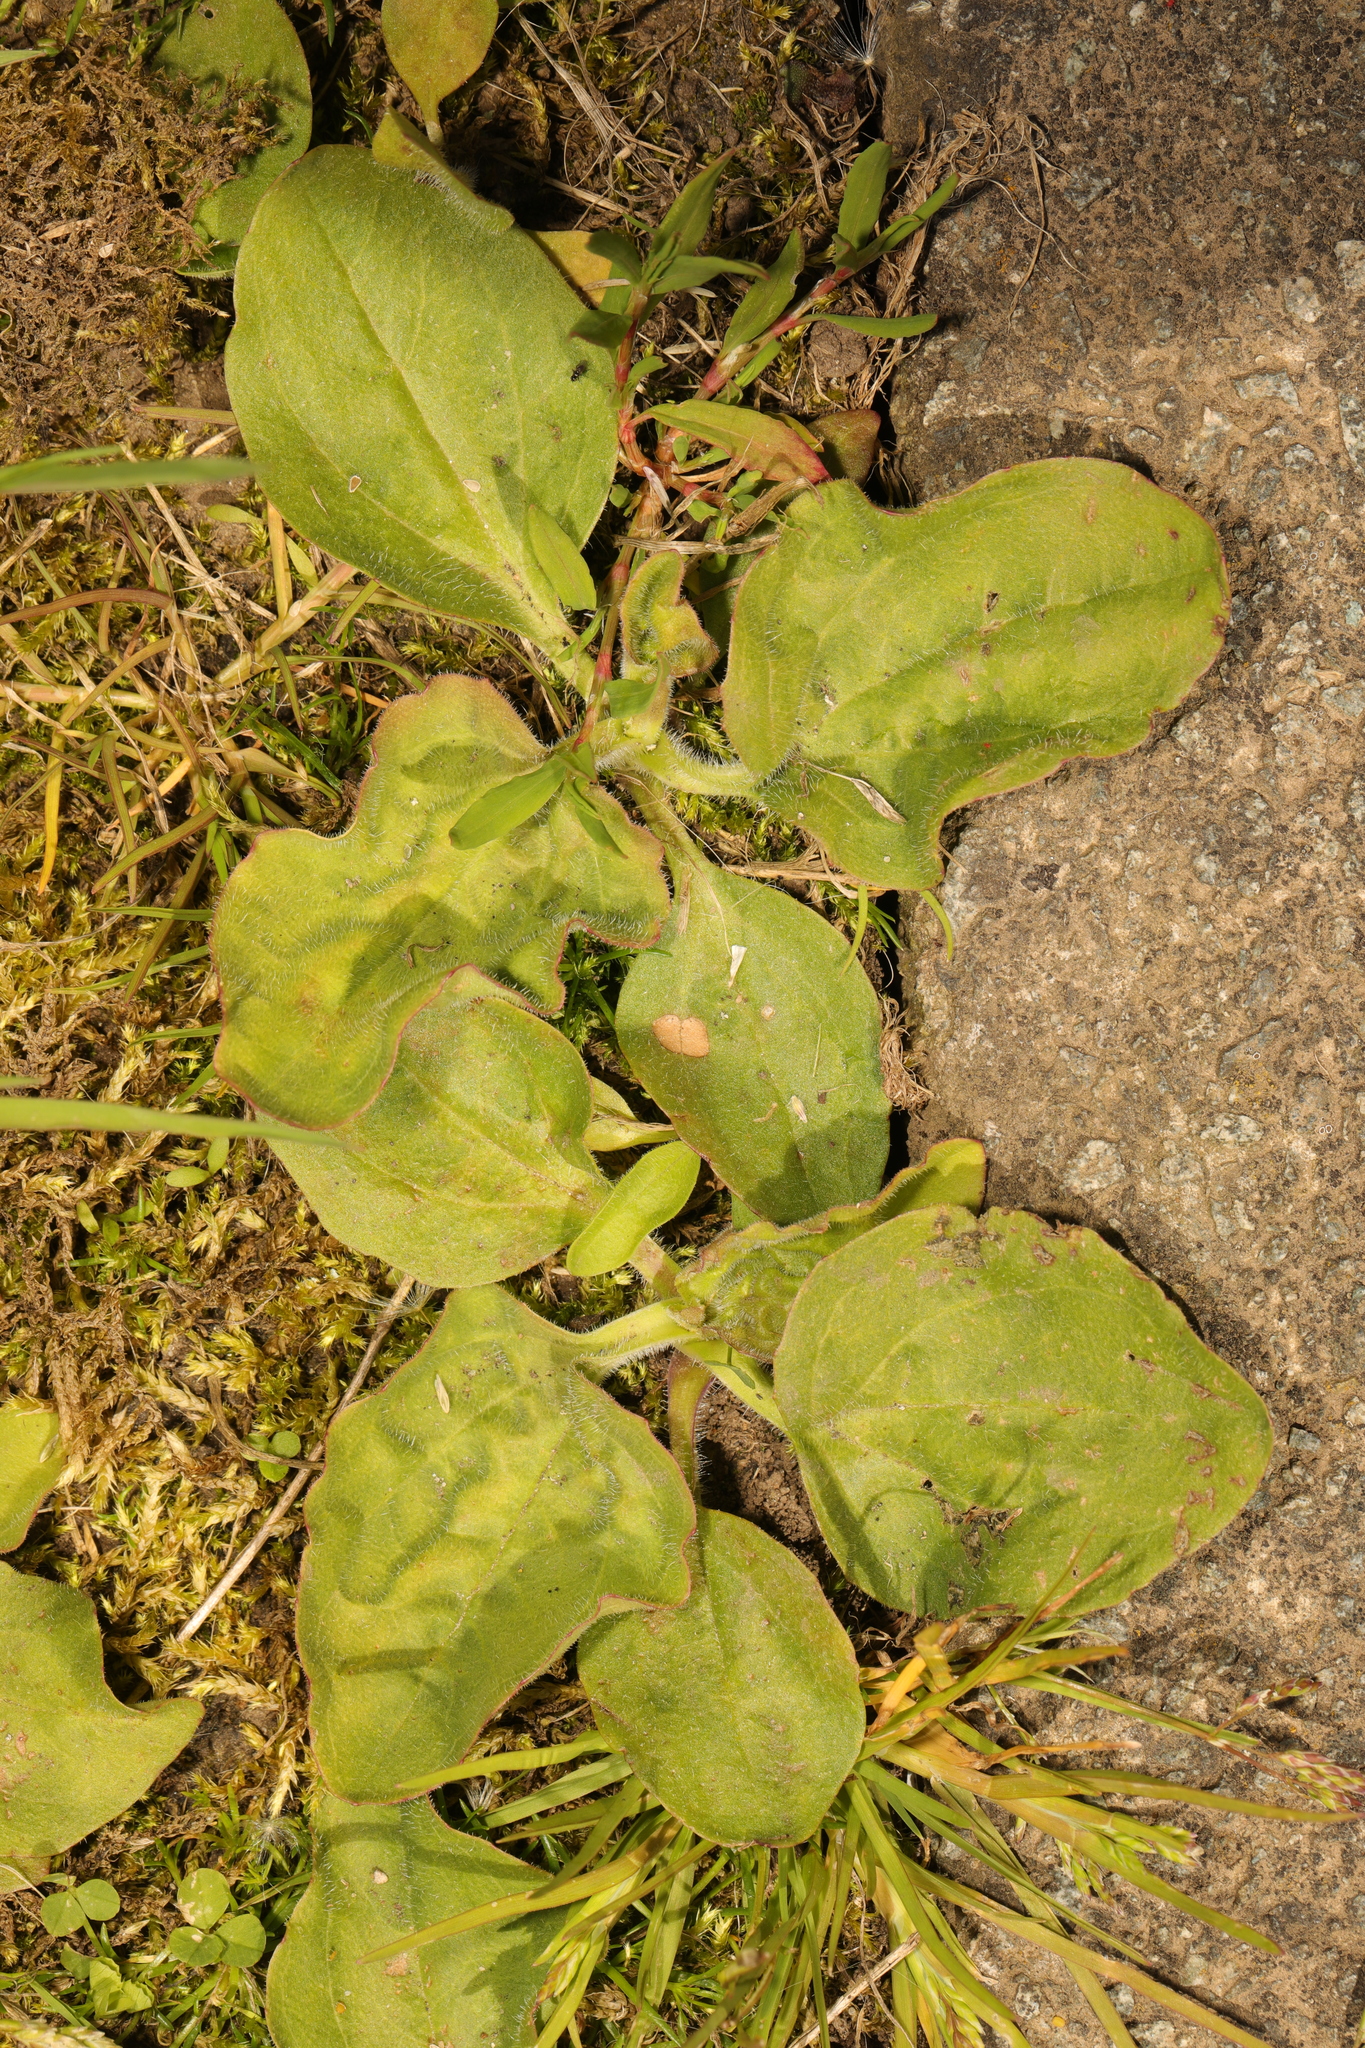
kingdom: Plantae
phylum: Tracheophyta
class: Magnoliopsida
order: Lamiales
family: Plantaginaceae
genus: Plantago
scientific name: Plantago major
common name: Common plantain
